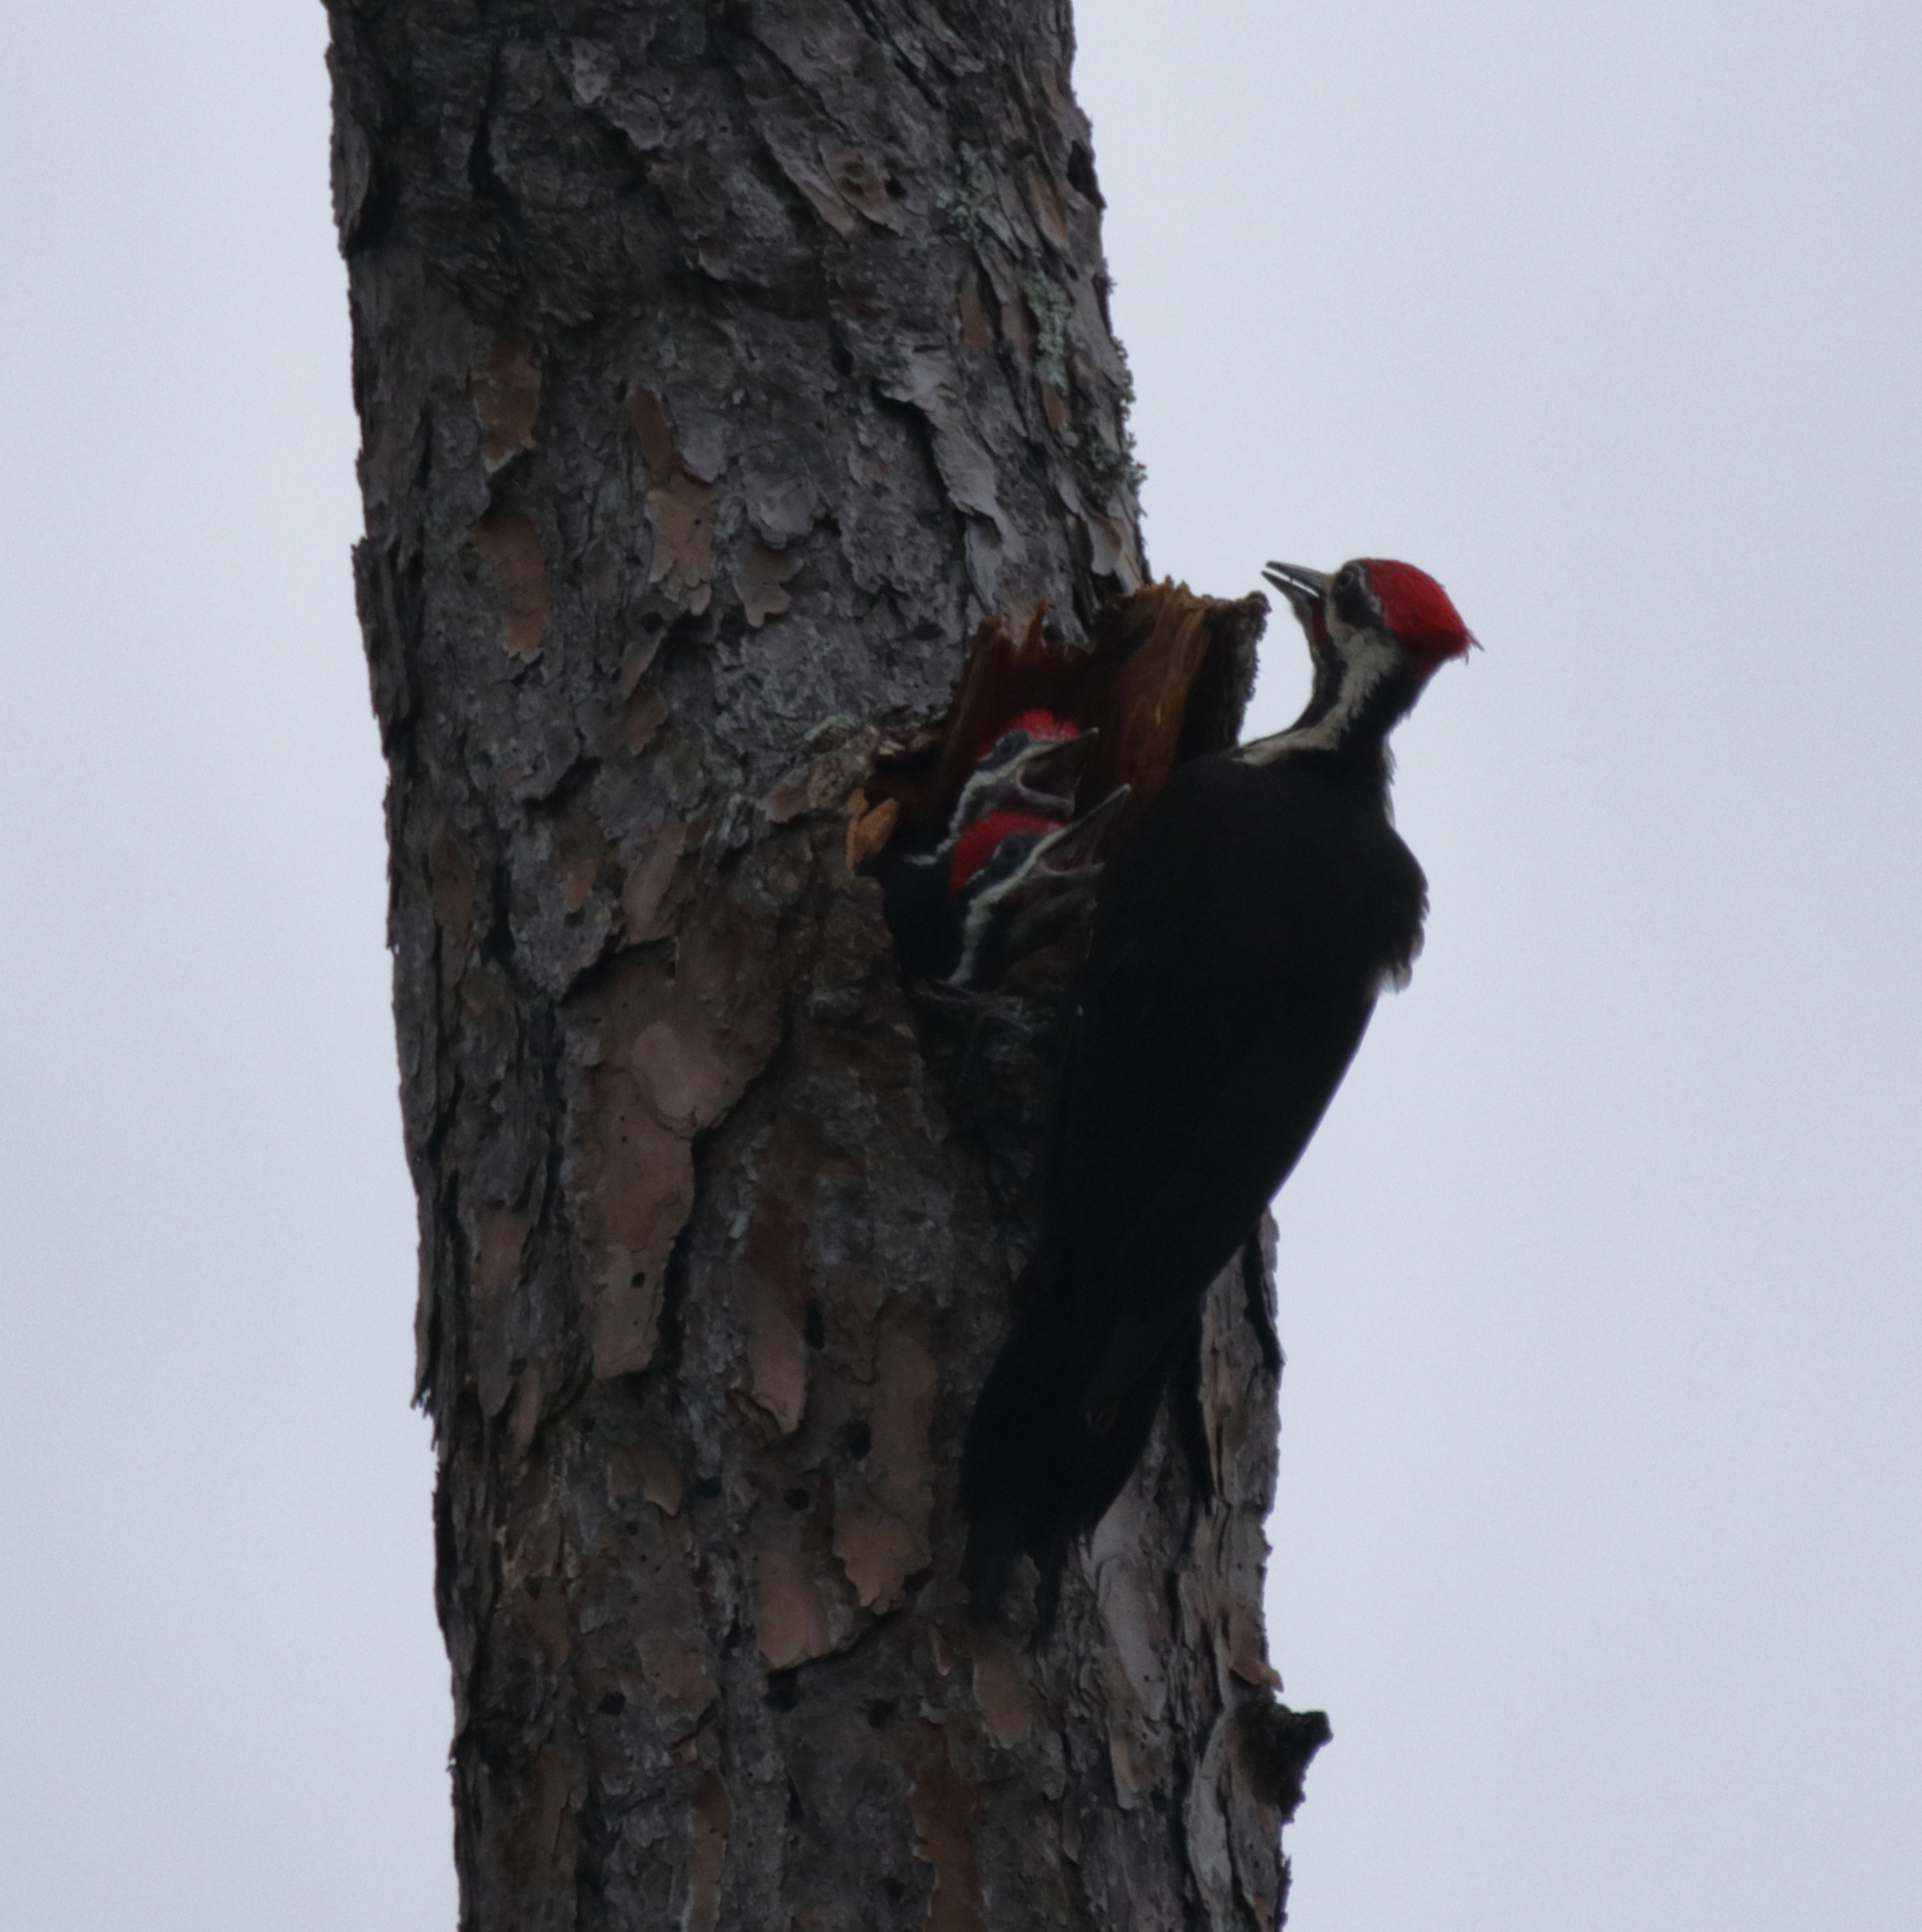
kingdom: Animalia
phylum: Chordata
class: Aves
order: Piciformes
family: Picidae
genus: Dryocopus
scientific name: Dryocopus pileatus
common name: Pileated woodpecker
